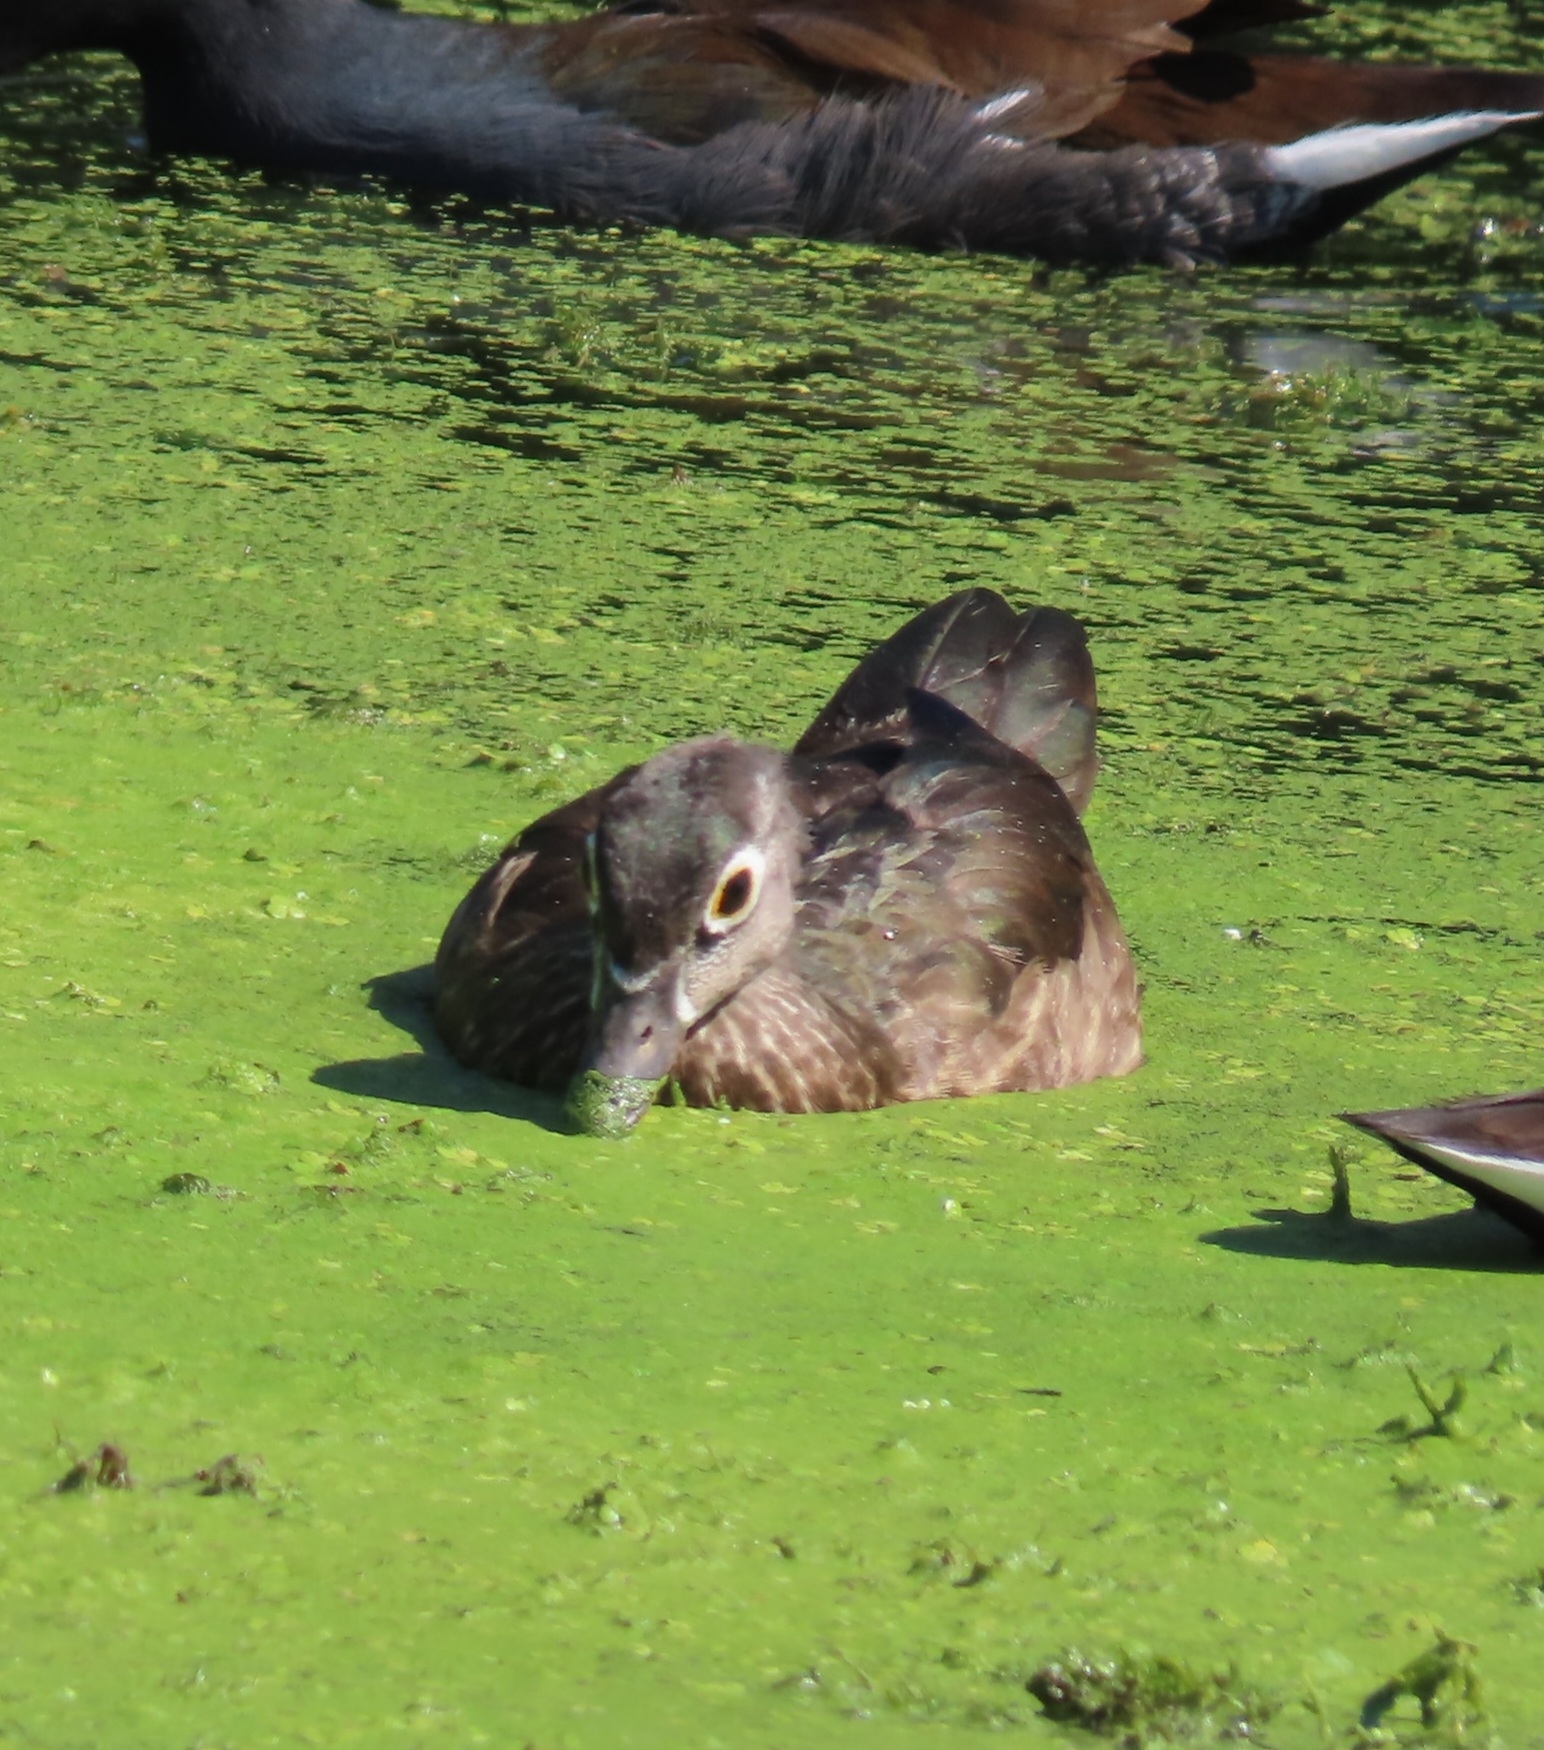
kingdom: Animalia
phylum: Chordata
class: Aves
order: Anseriformes
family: Anatidae
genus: Aix
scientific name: Aix sponsa
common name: Wood duck
